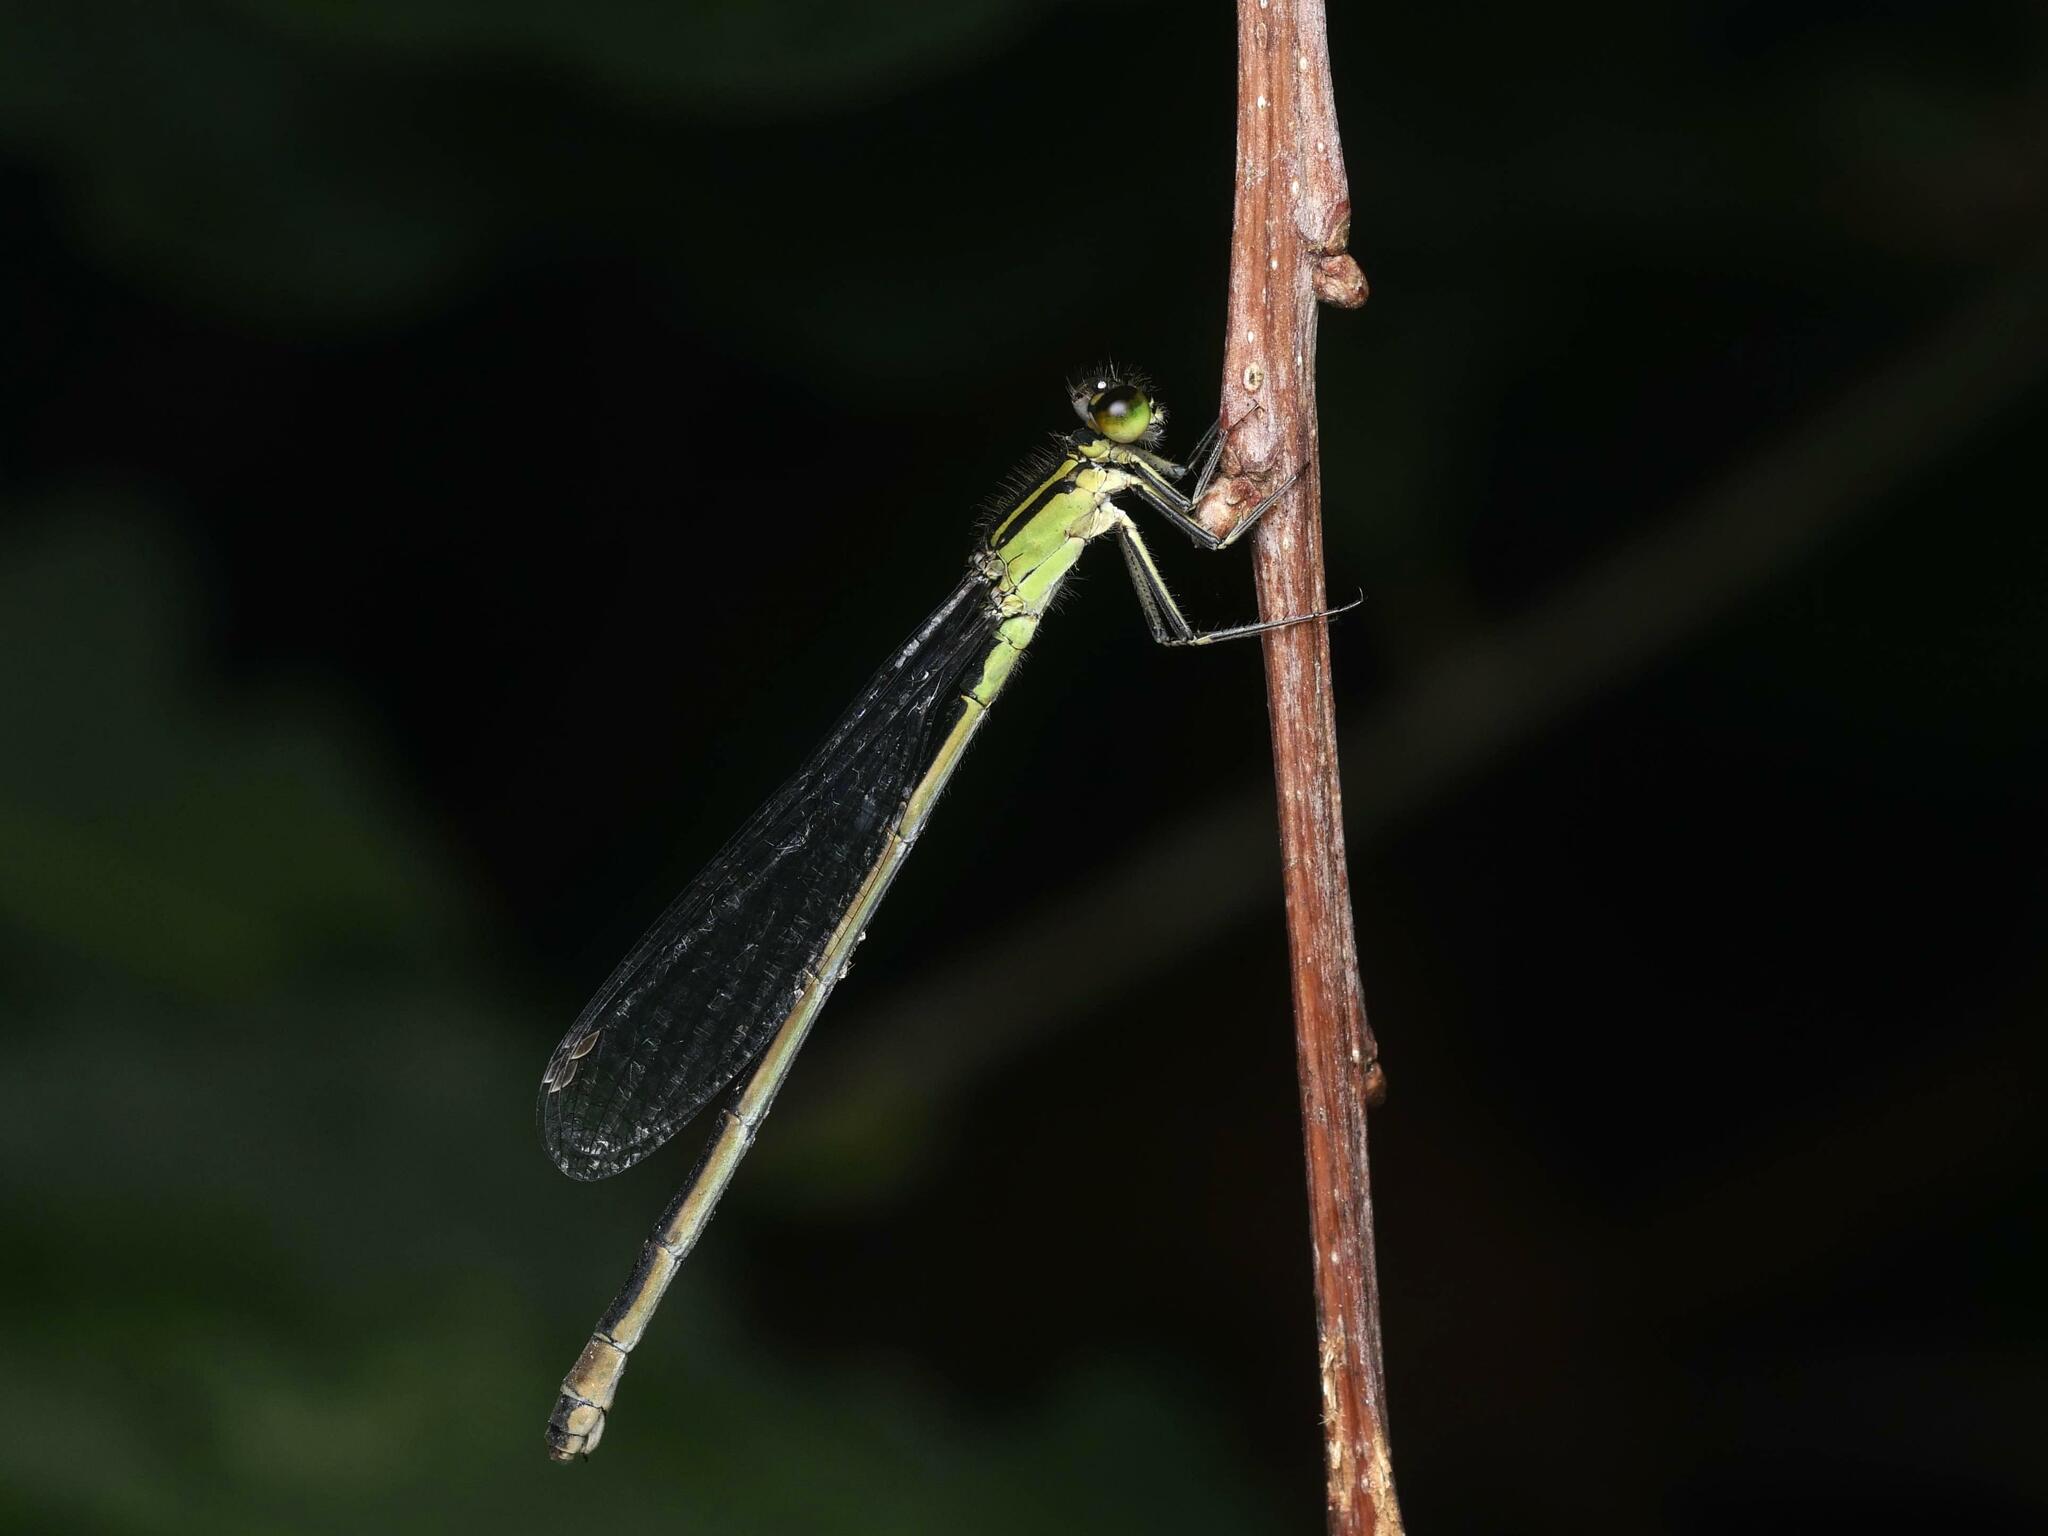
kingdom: Animalia
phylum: Arthropoda
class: Insecta
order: Odonata
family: Coenagrionidae
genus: Ischnura
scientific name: Ischnura elegans
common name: Blue-tailed damselfly
